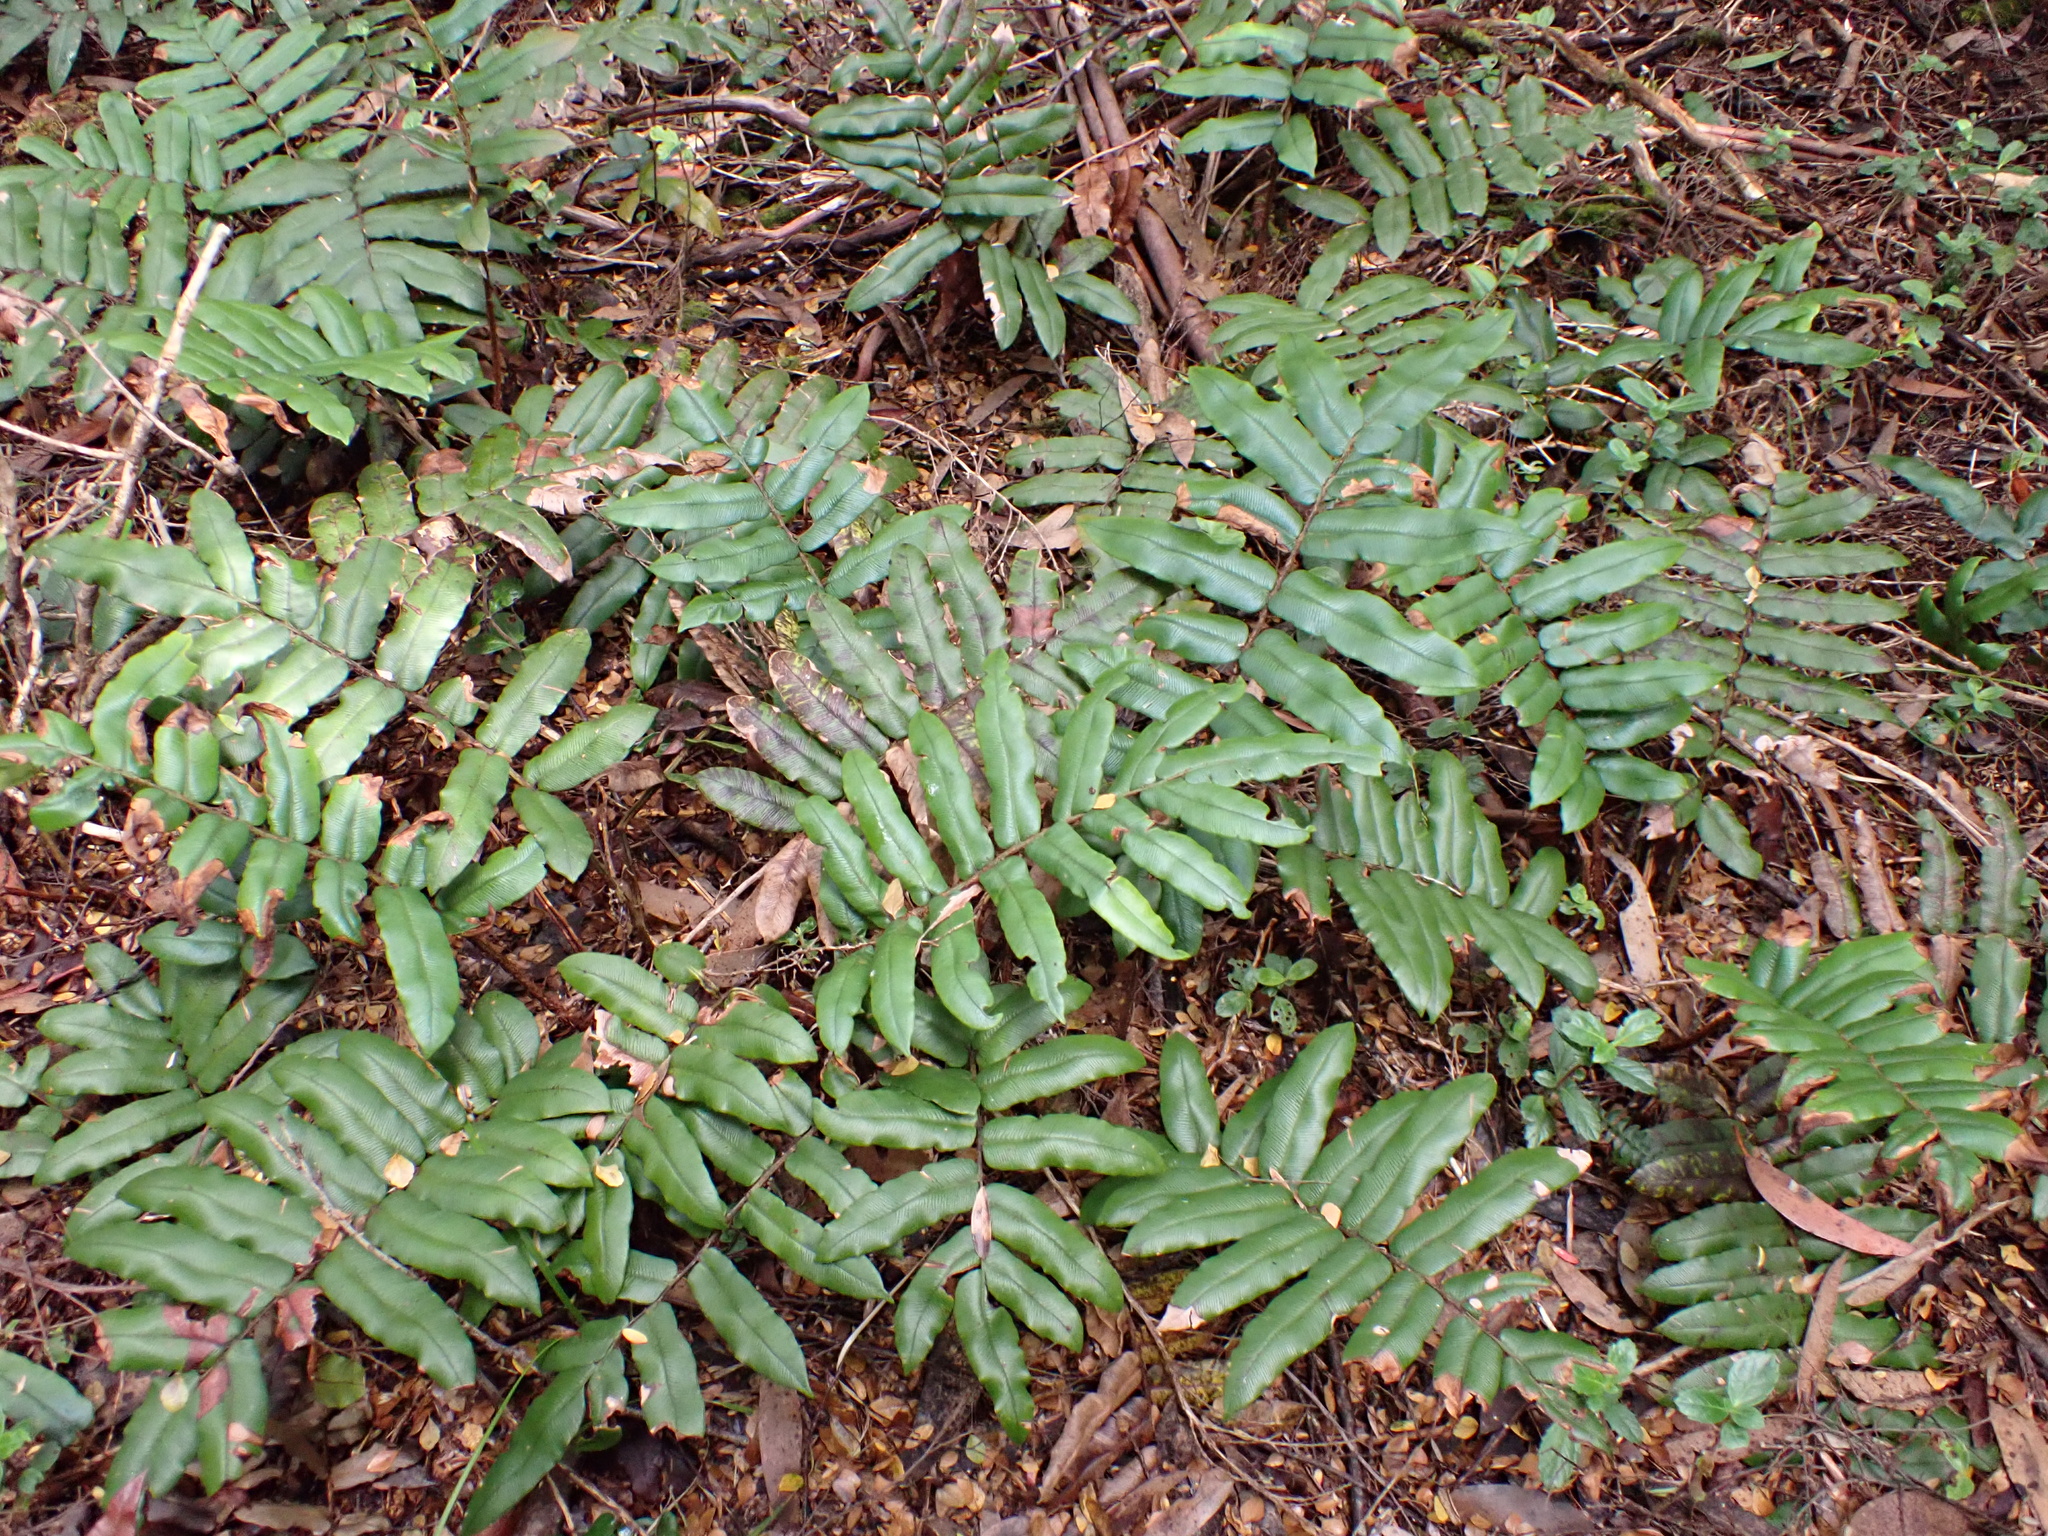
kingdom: Plantae
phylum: Tracheophyta
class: Polypodiopsida
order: Polypodiales
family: Blechnaceae
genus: Parablechnum
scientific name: Parablechnum wattsii
